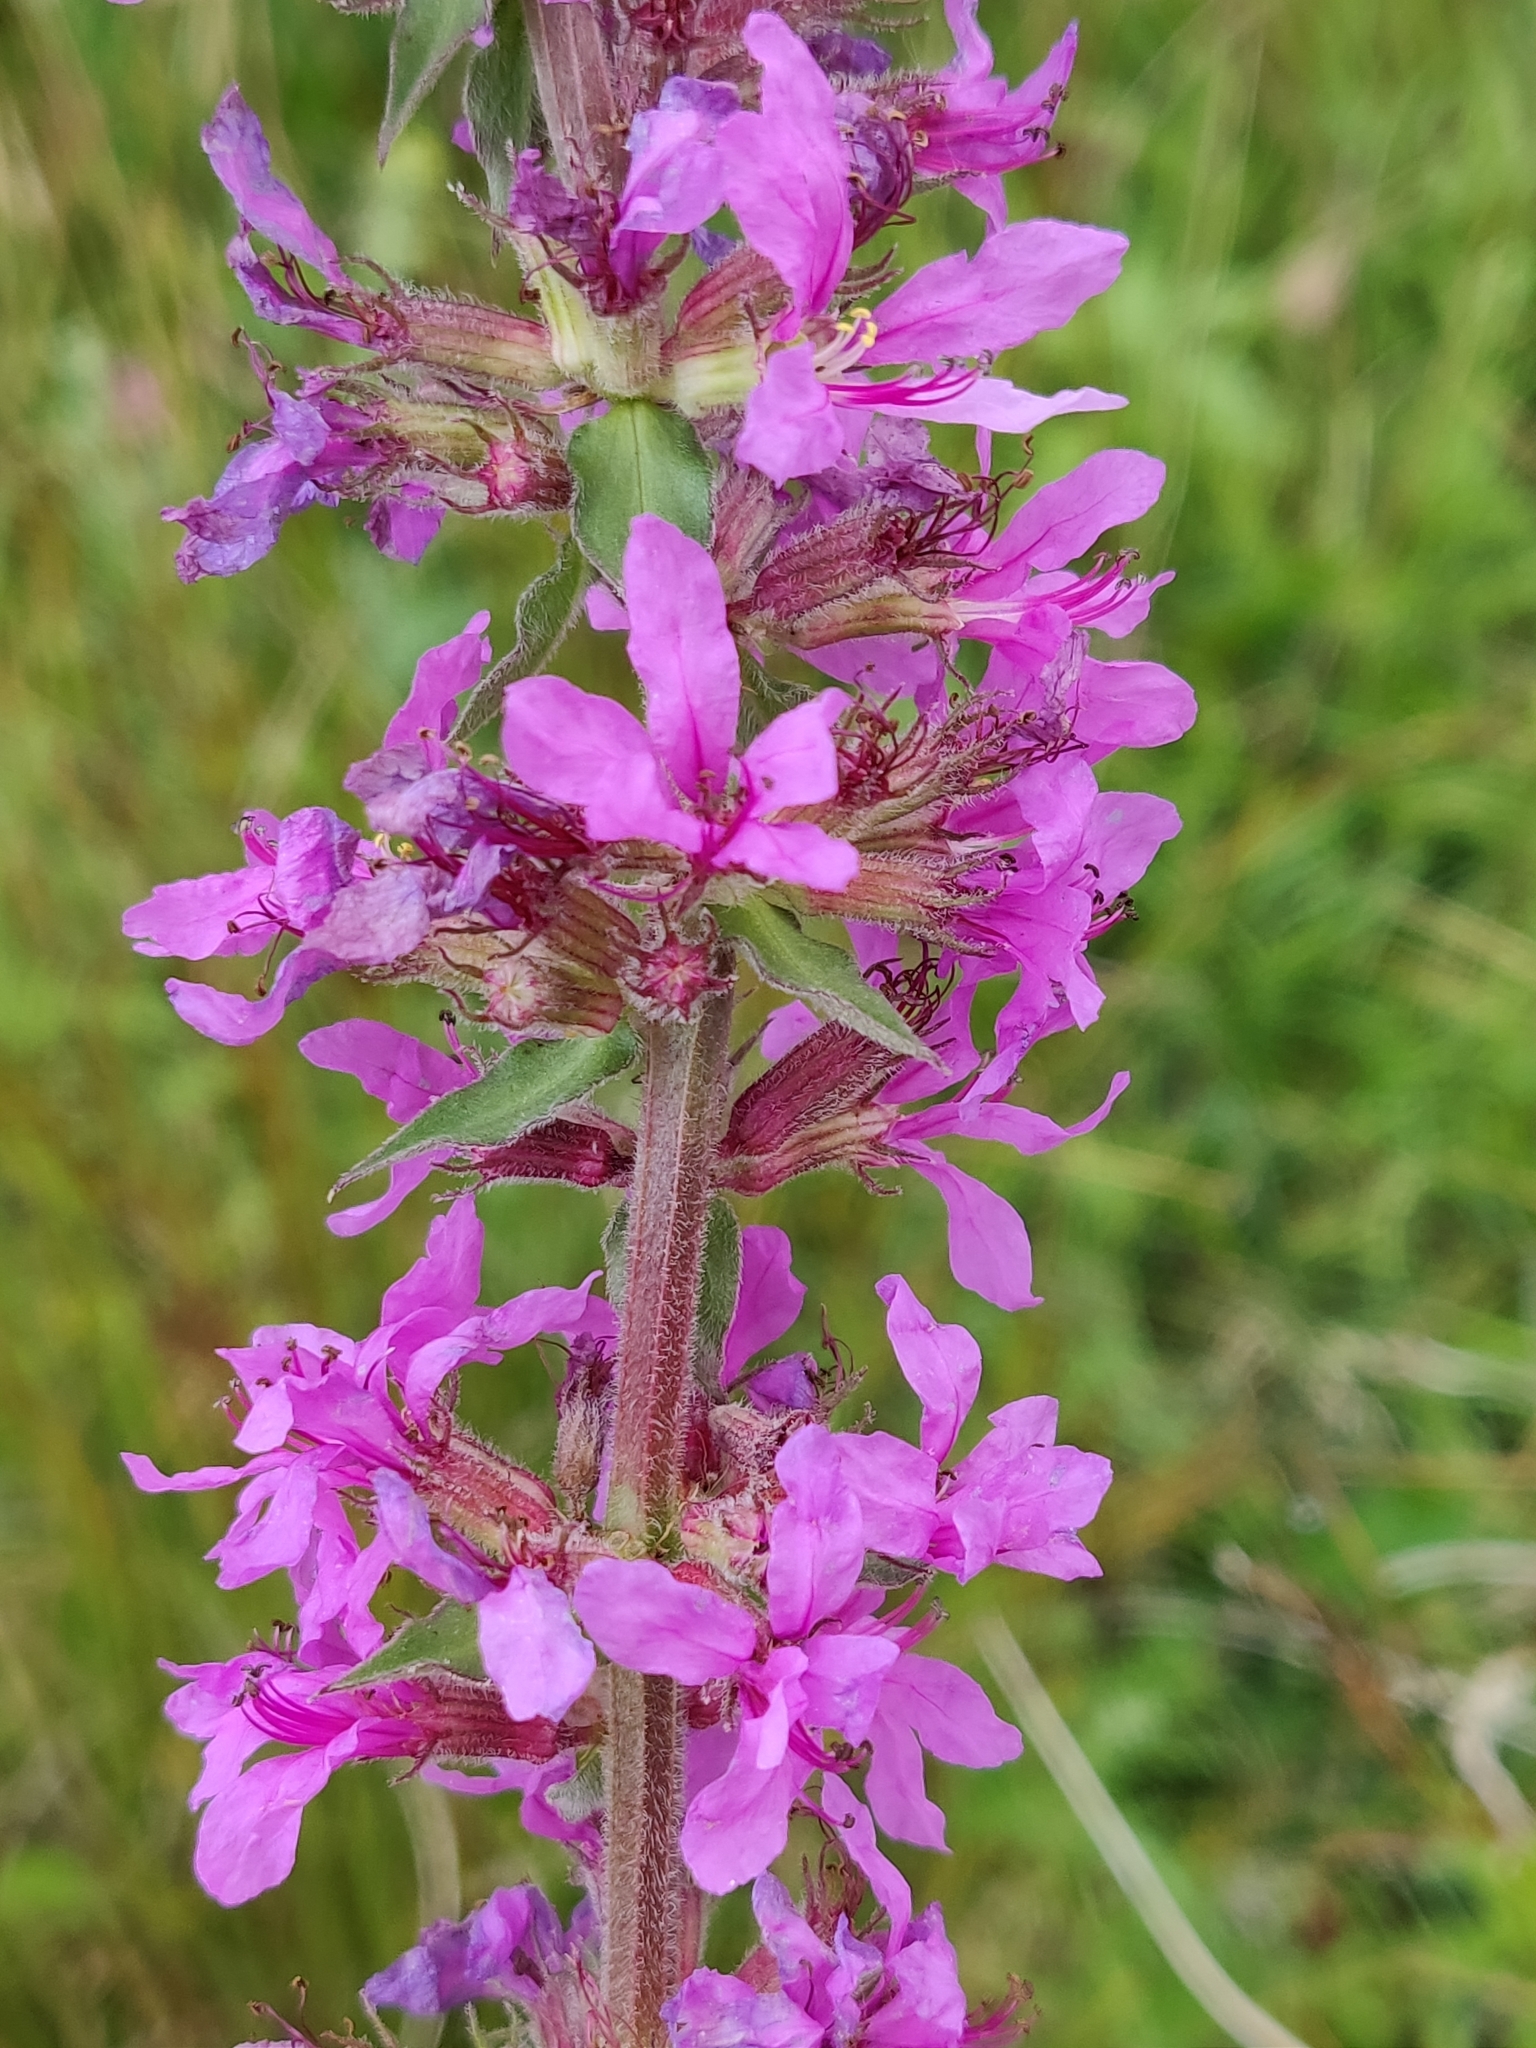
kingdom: Plantae
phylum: Tracheophyta
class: Magnoliopsida
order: Myrtales
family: Lythraceae
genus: Lythrum
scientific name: Lythrum salicaria
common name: Purple loosestrife
